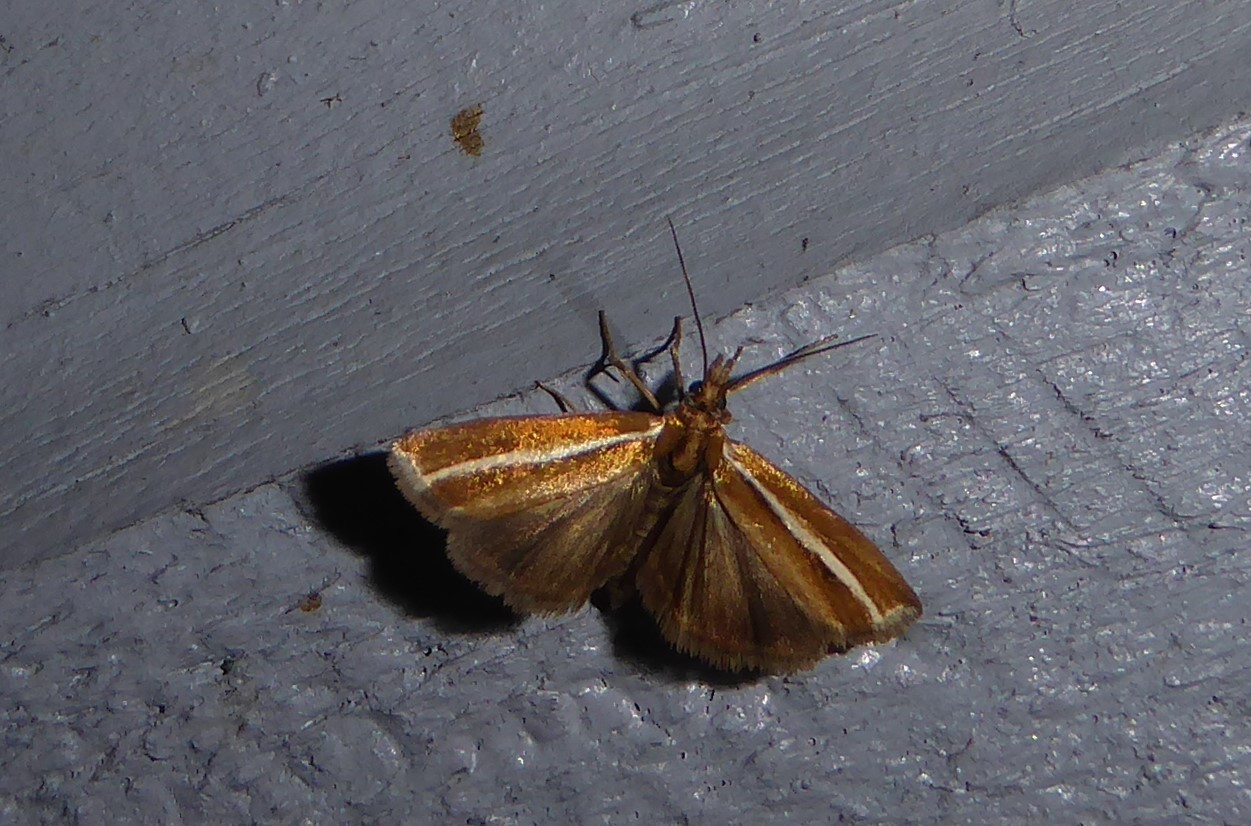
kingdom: Animalia
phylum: Arthropoda
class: Insecta
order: Lepidoptera
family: Crambidae
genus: Orocrambus
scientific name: Orocrambus aethonellus
